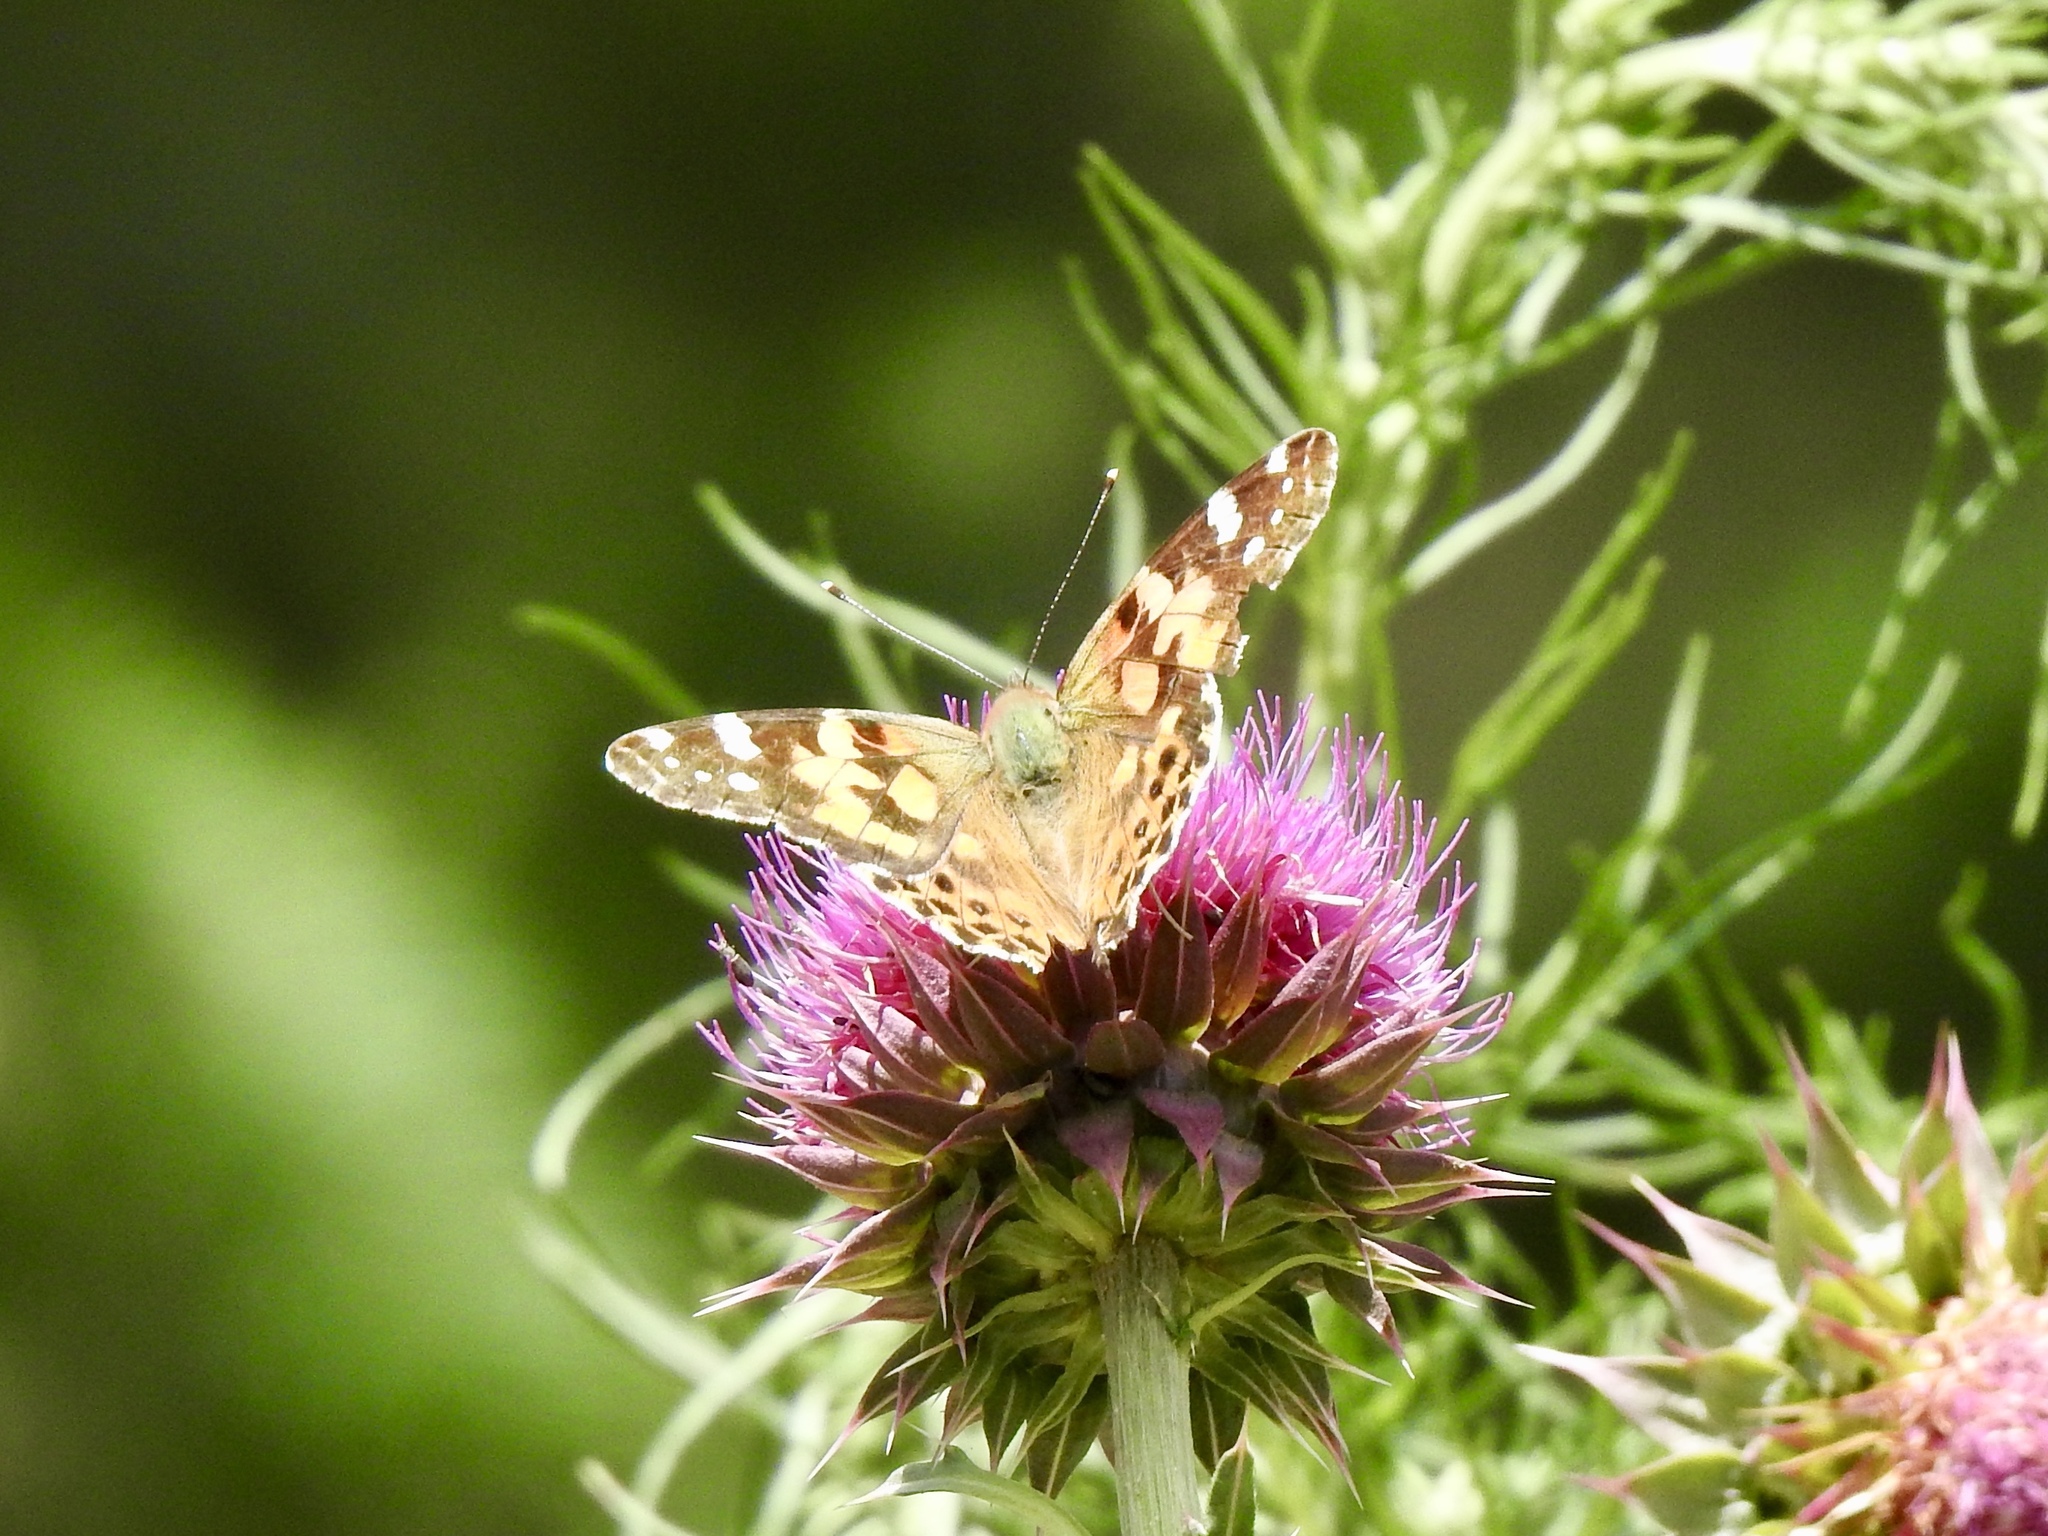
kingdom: Animalia
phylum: Arthropoda
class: Insecta
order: Lepidoptera
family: Nymphalidae
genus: Vanessa
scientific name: Vanessa cardui
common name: Painted lady
